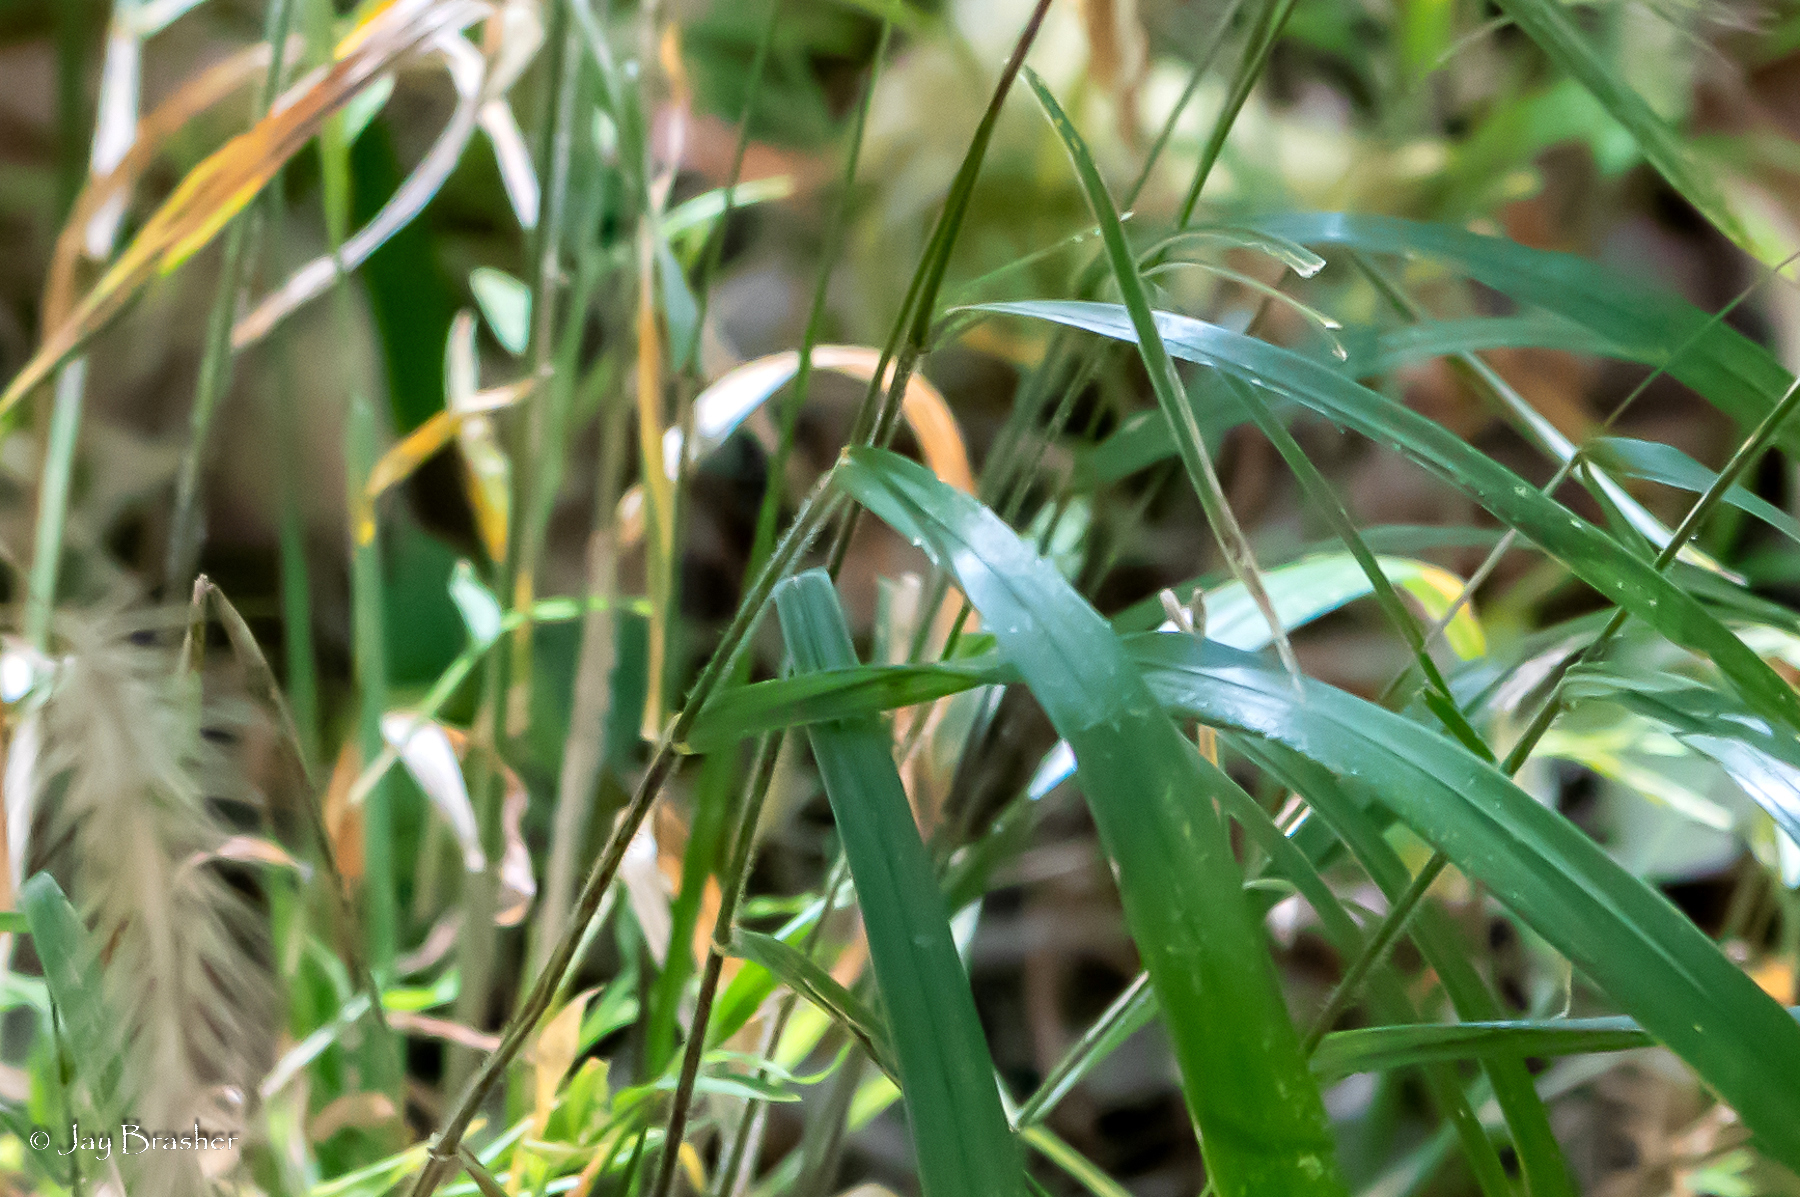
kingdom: Plantae
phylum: Tracheophyta
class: Liliopsida
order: Poales
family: Poaceae
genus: Elymus
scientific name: Elymus villosus
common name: Downy wild rye
